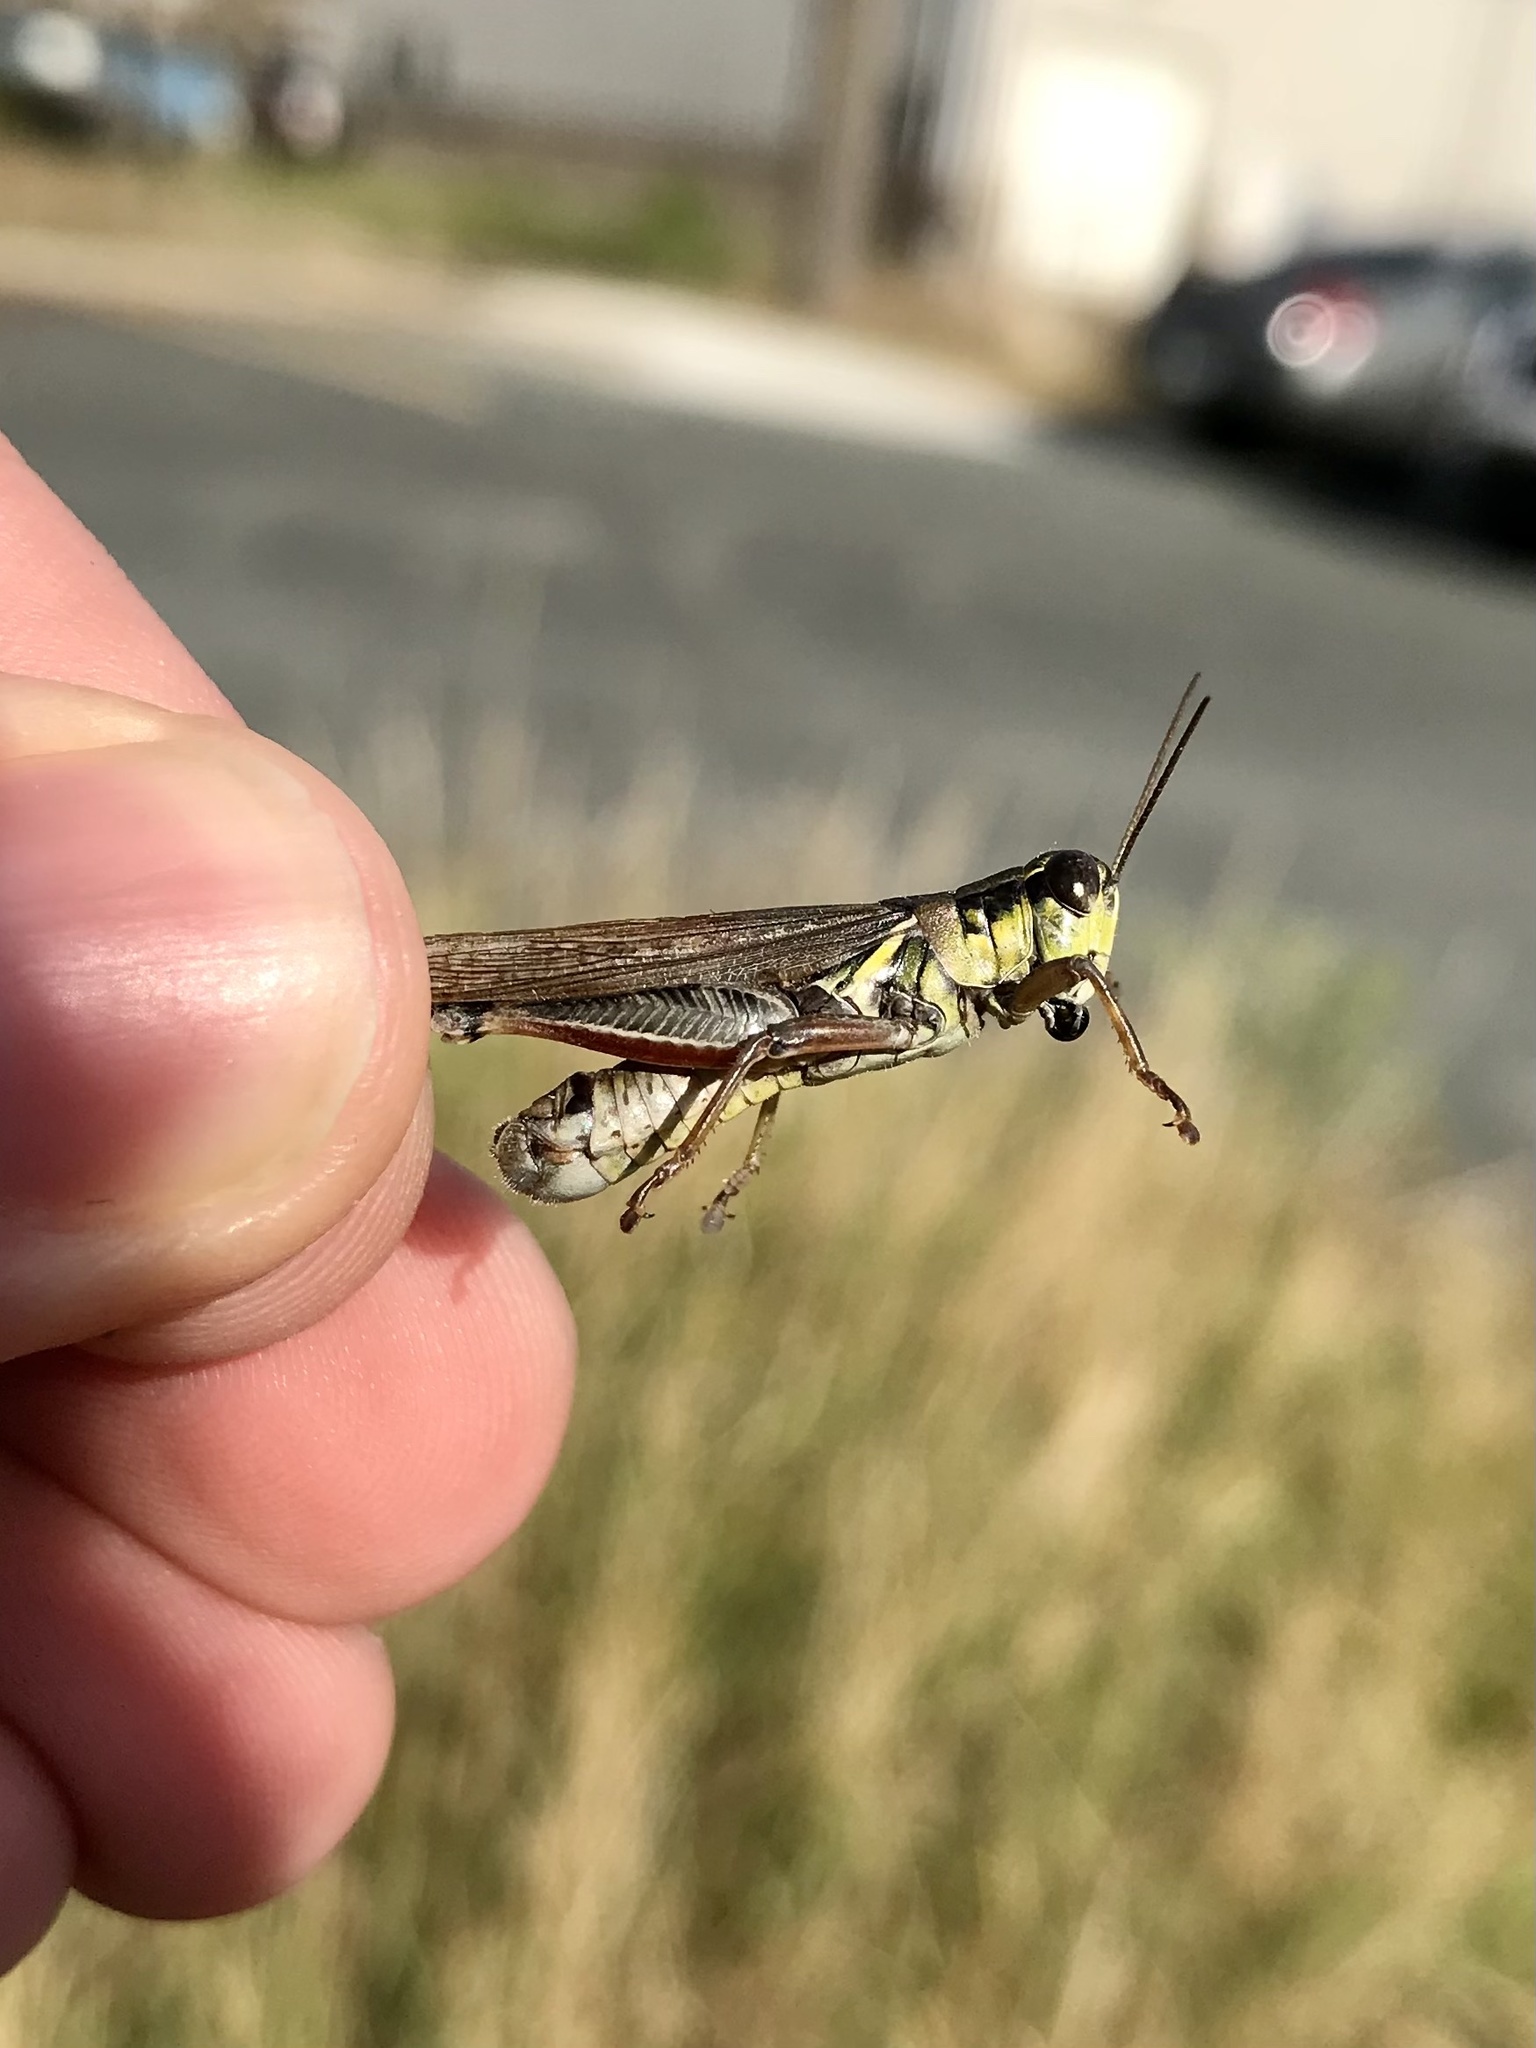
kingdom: Animalia
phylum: Arthropoda
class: Insecta
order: Orthoptera
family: Acrididae
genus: Melanoplus
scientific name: Melanoplus femurrubrum
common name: Red-legged grasshopper
